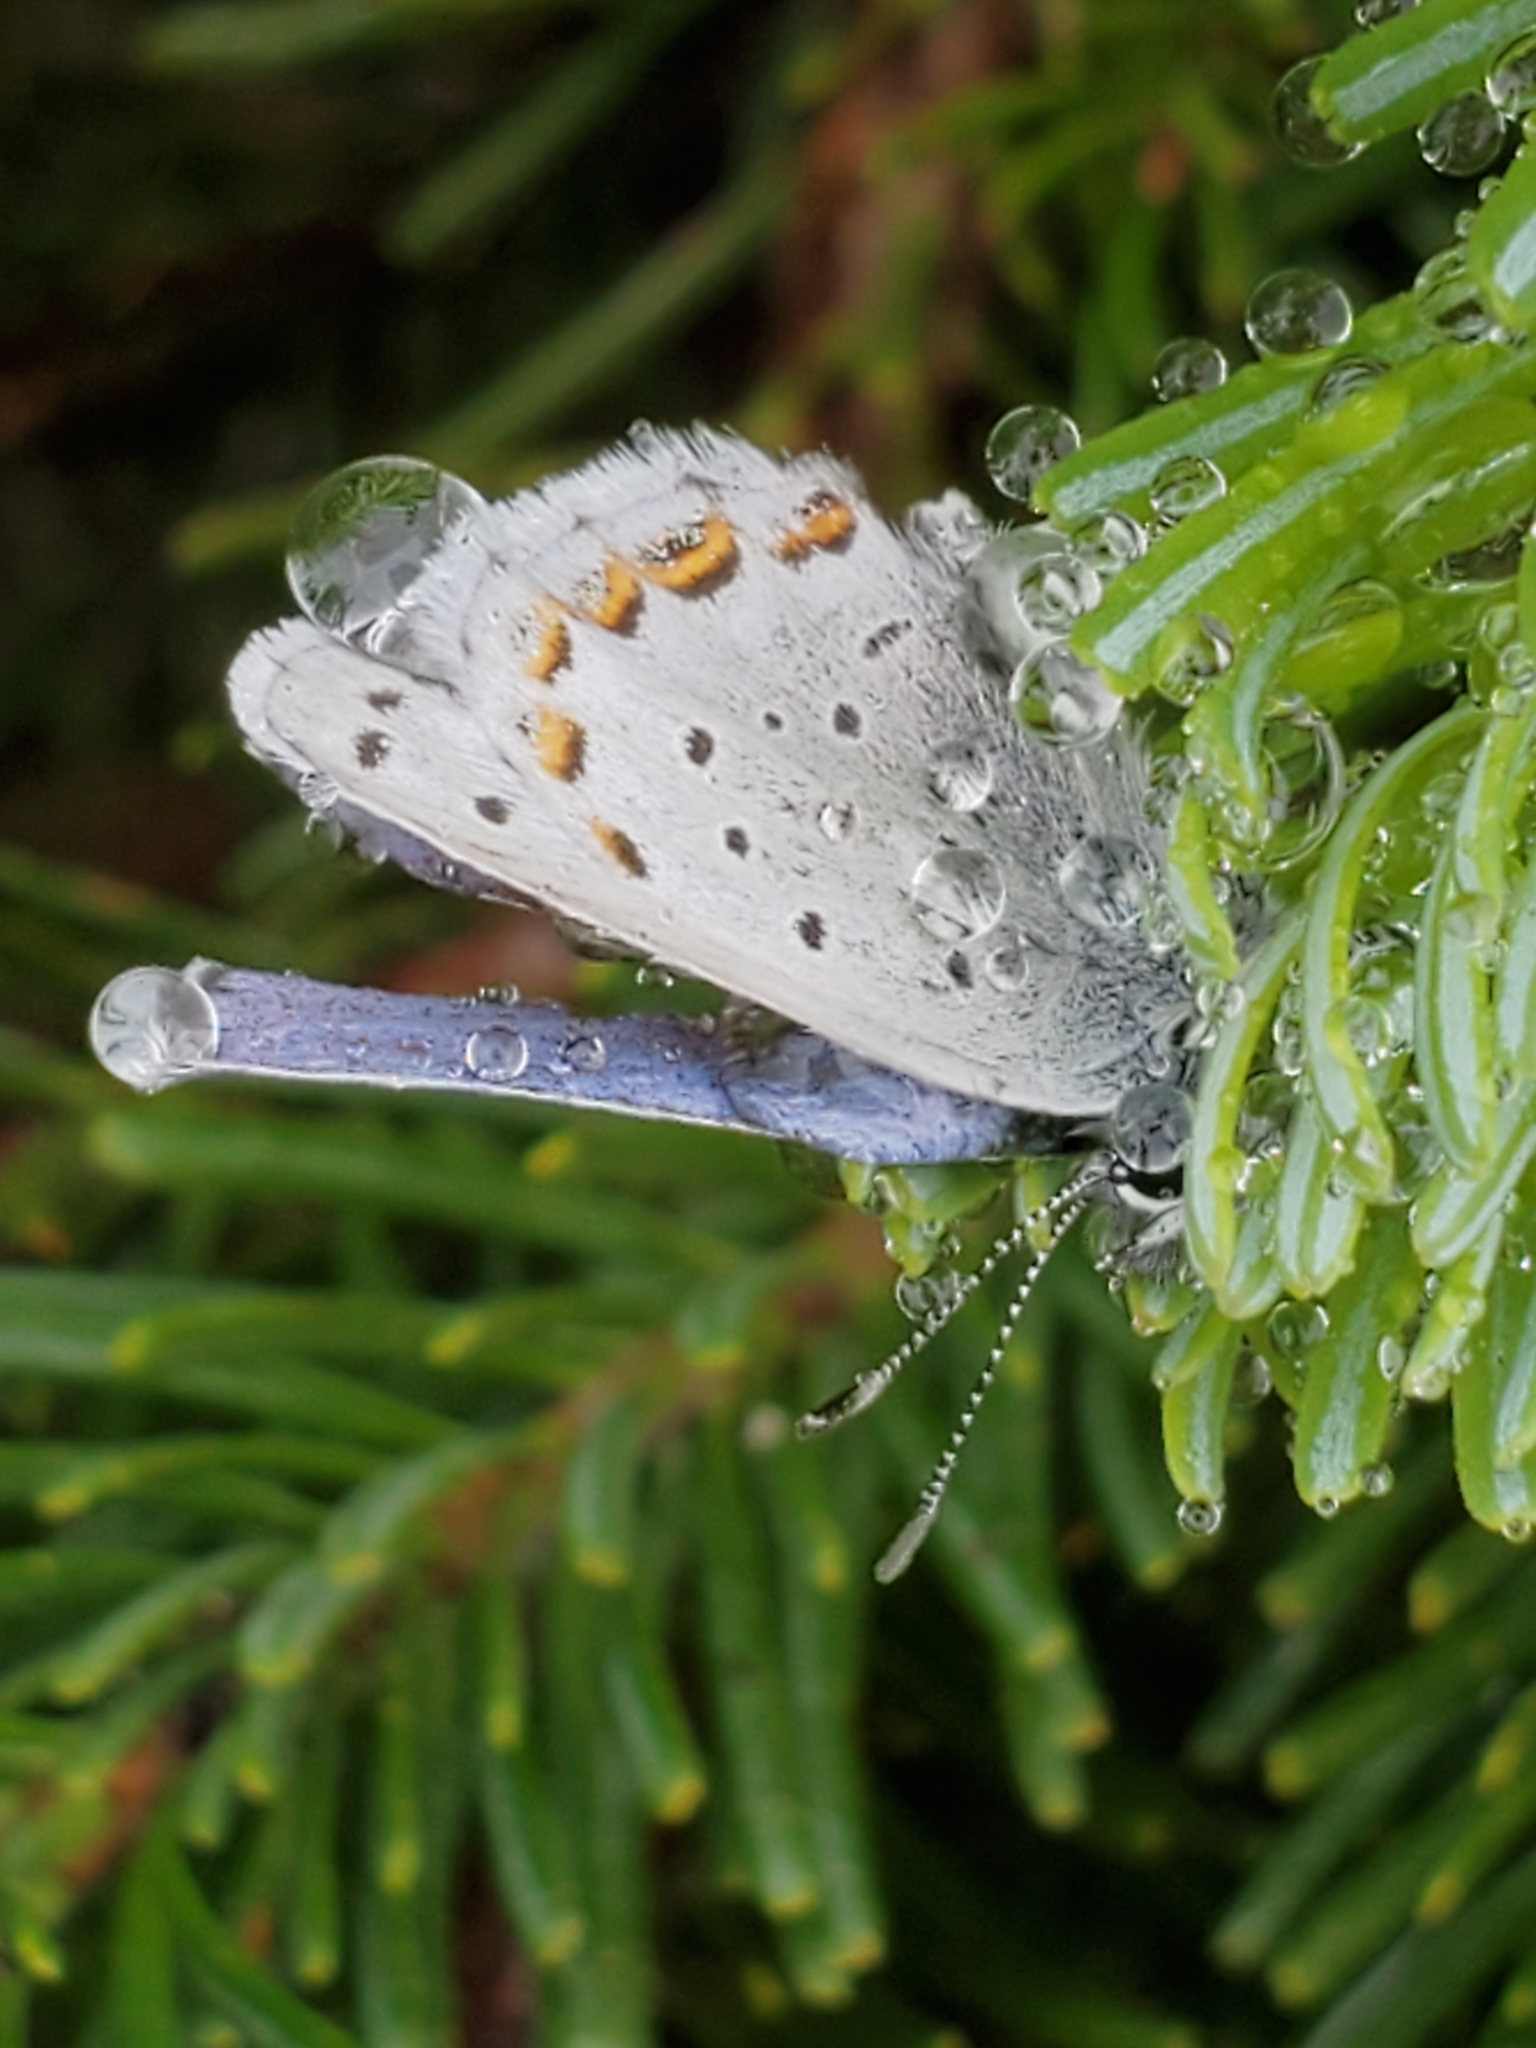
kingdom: Animalia
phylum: Arthropoda
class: Insecta
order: Lepidoptera
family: Lycaenidae
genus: Lycaeides
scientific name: Lycaeides anna
